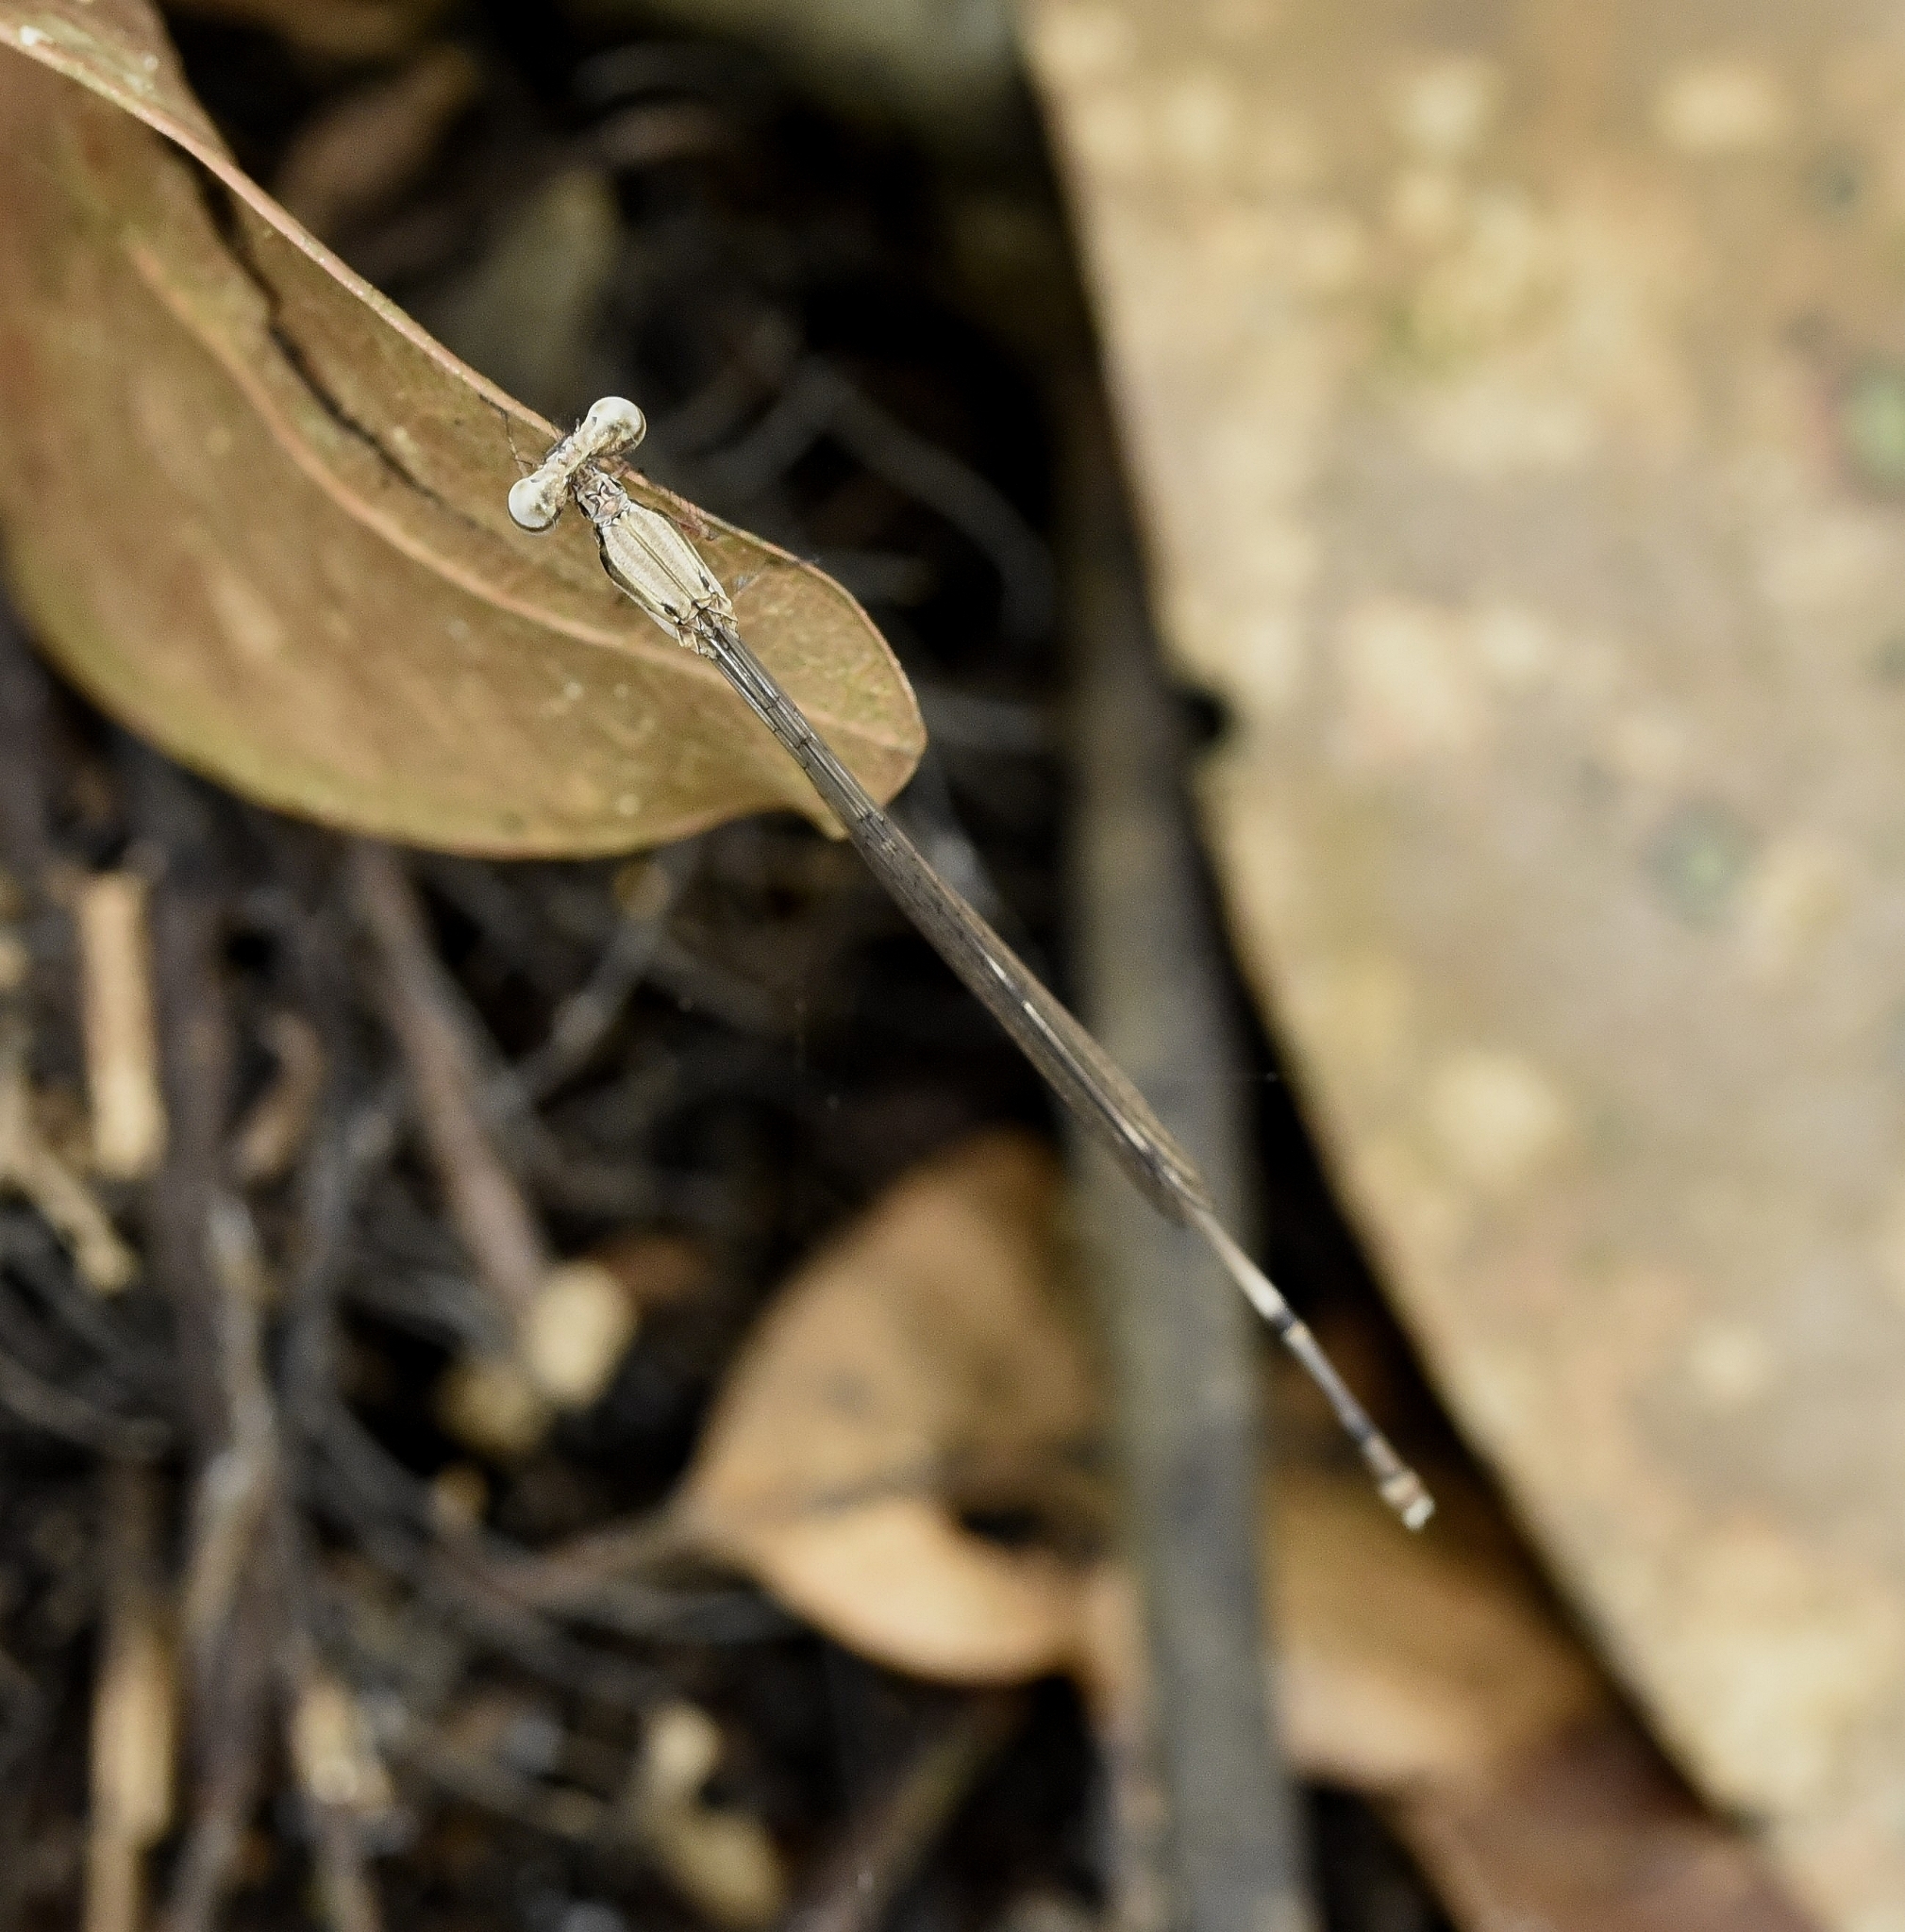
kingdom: Animalia
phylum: Arthropoda
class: Insecta
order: Odonata
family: Platycnemididae
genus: Elattoneura
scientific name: Elattoneura tetrica
